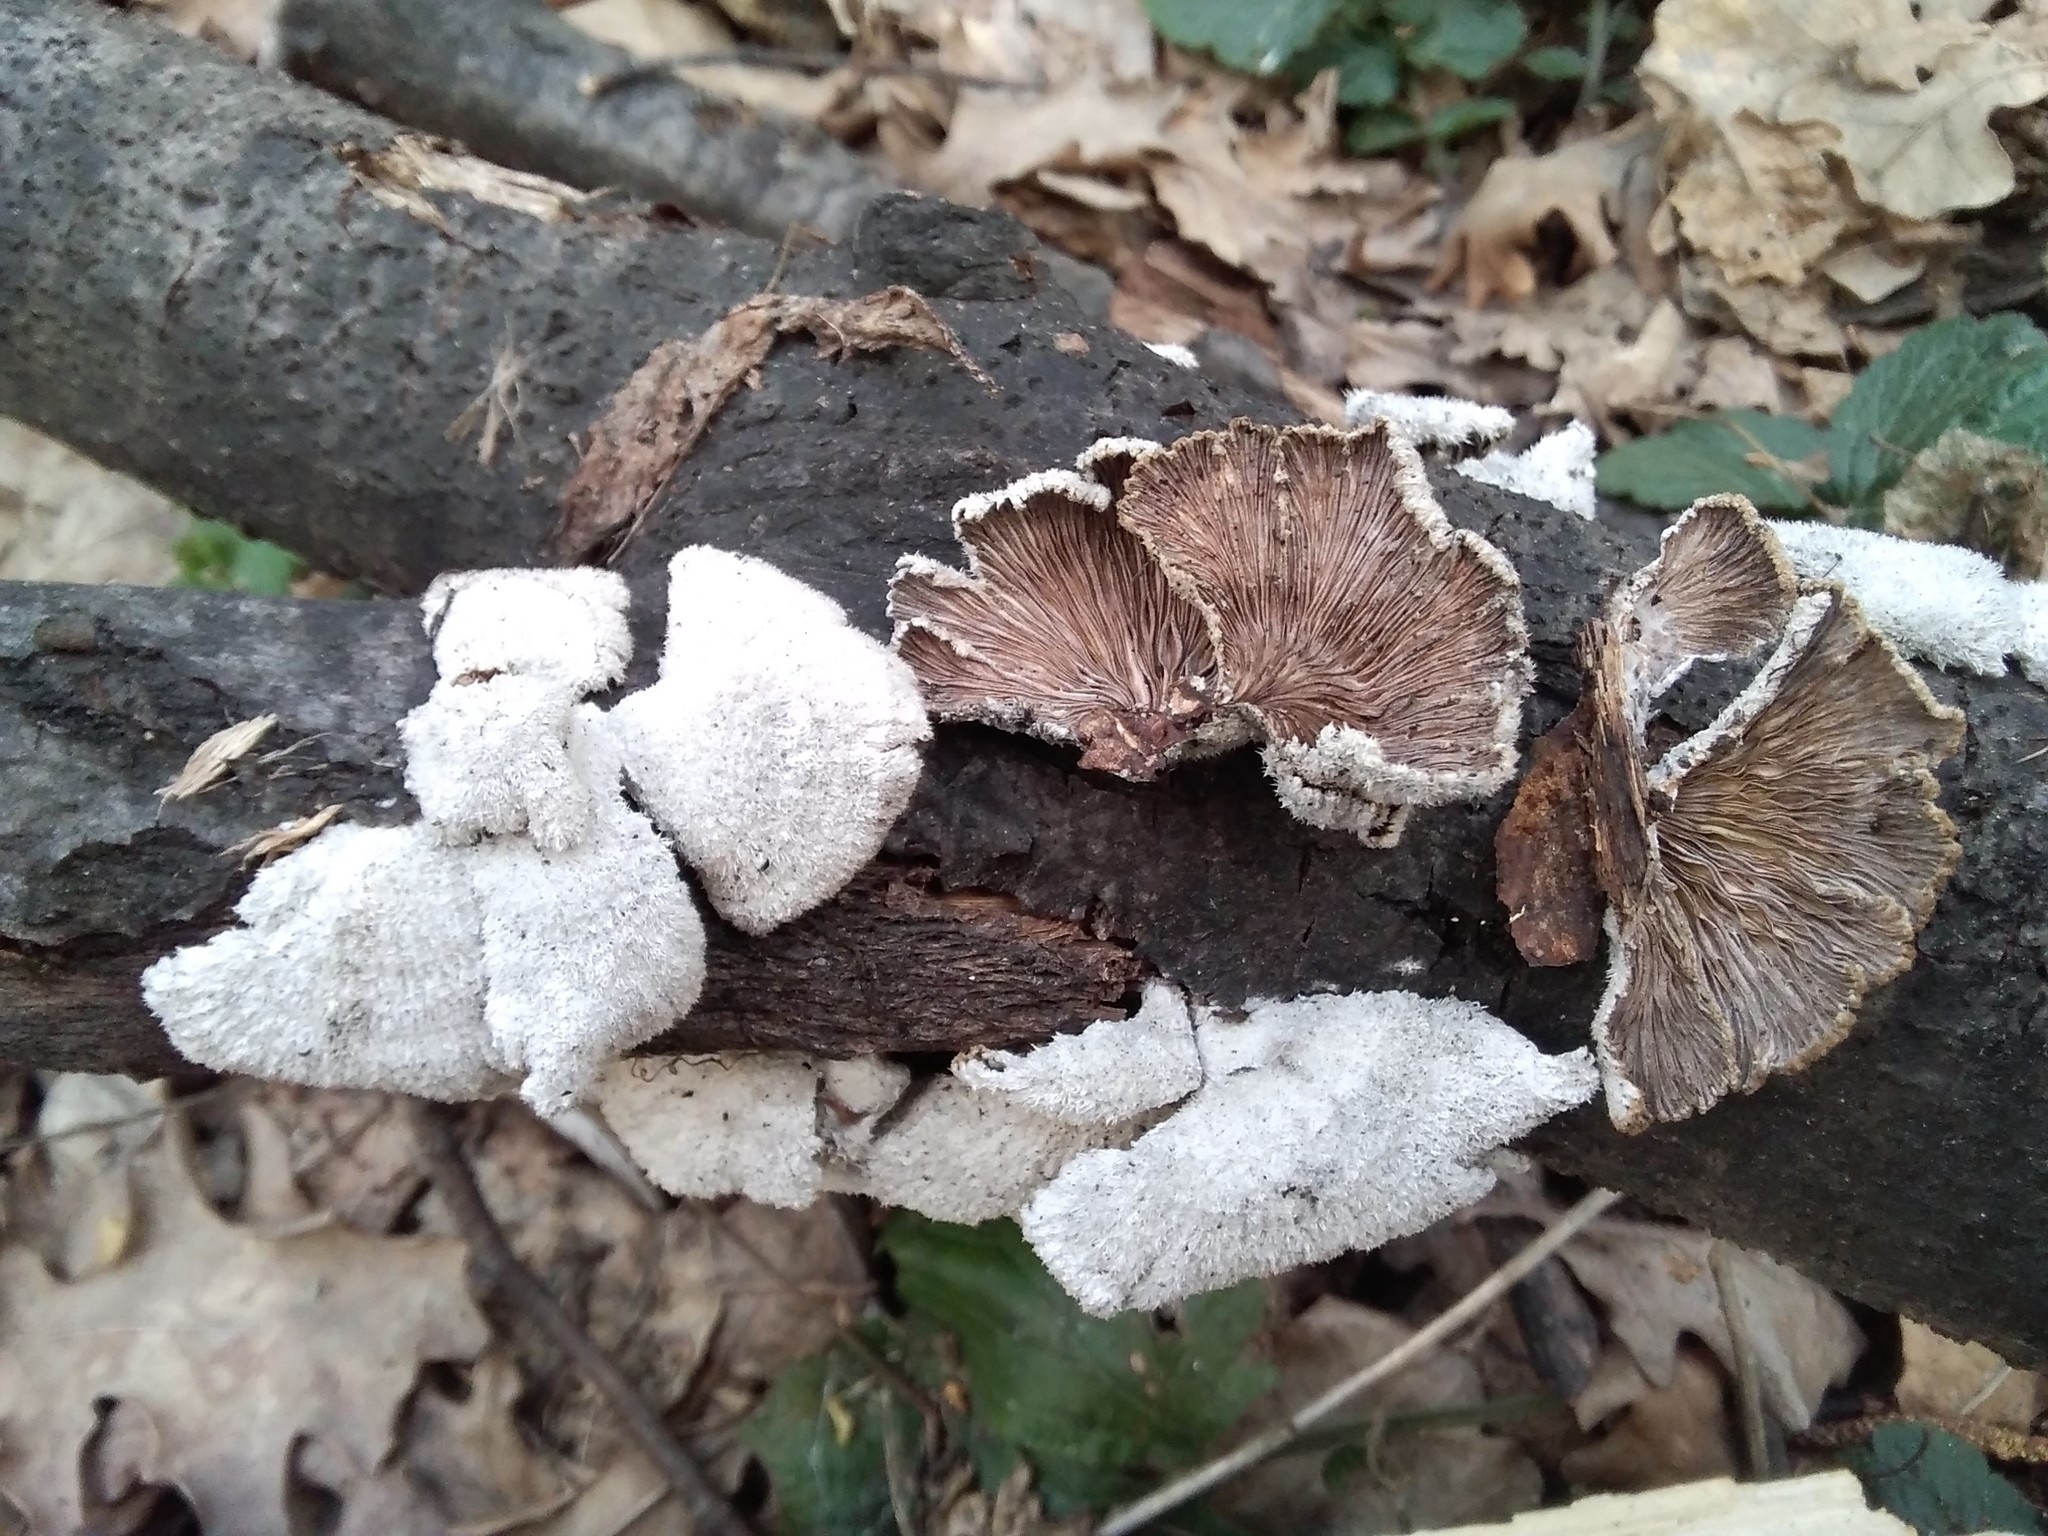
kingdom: Fungi
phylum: Basidiomycota
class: Agaricomycetes
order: Agaricales
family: Schizophyllaceae
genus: Schizophyllum
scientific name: Schizophyllum commune
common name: Common porecrust
